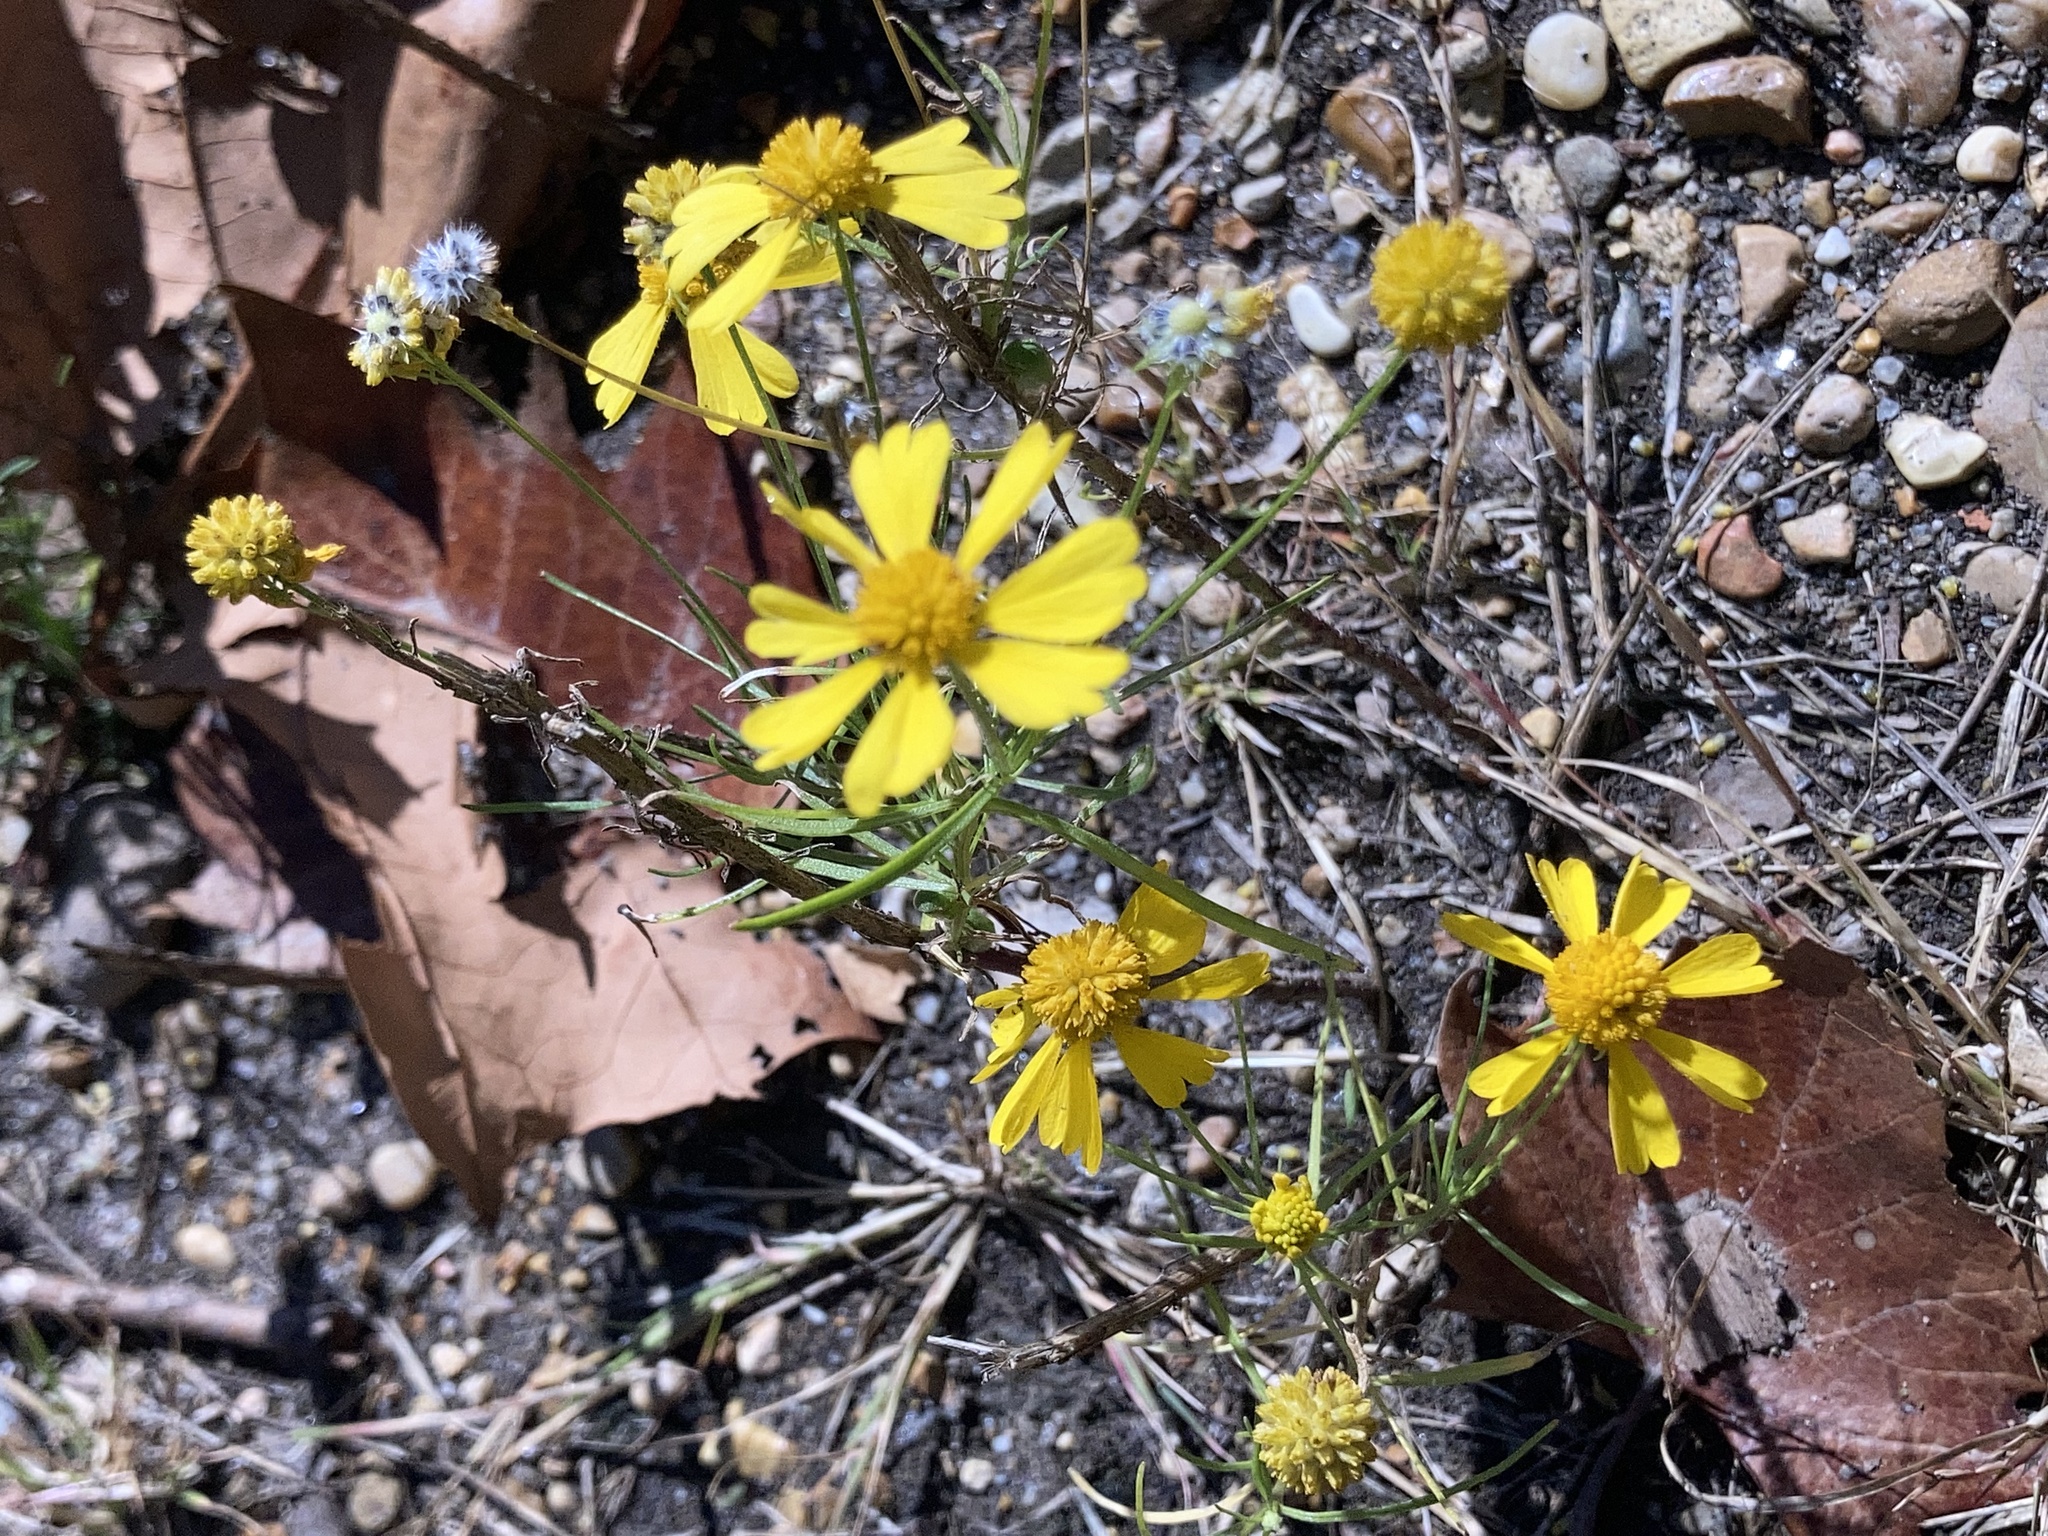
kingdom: Plantae
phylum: Tracheophyta
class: Magnoliopsida
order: Asterales
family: Asteraceae
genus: Helenium
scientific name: Helenium amarum
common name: Bitter sneezeweed
